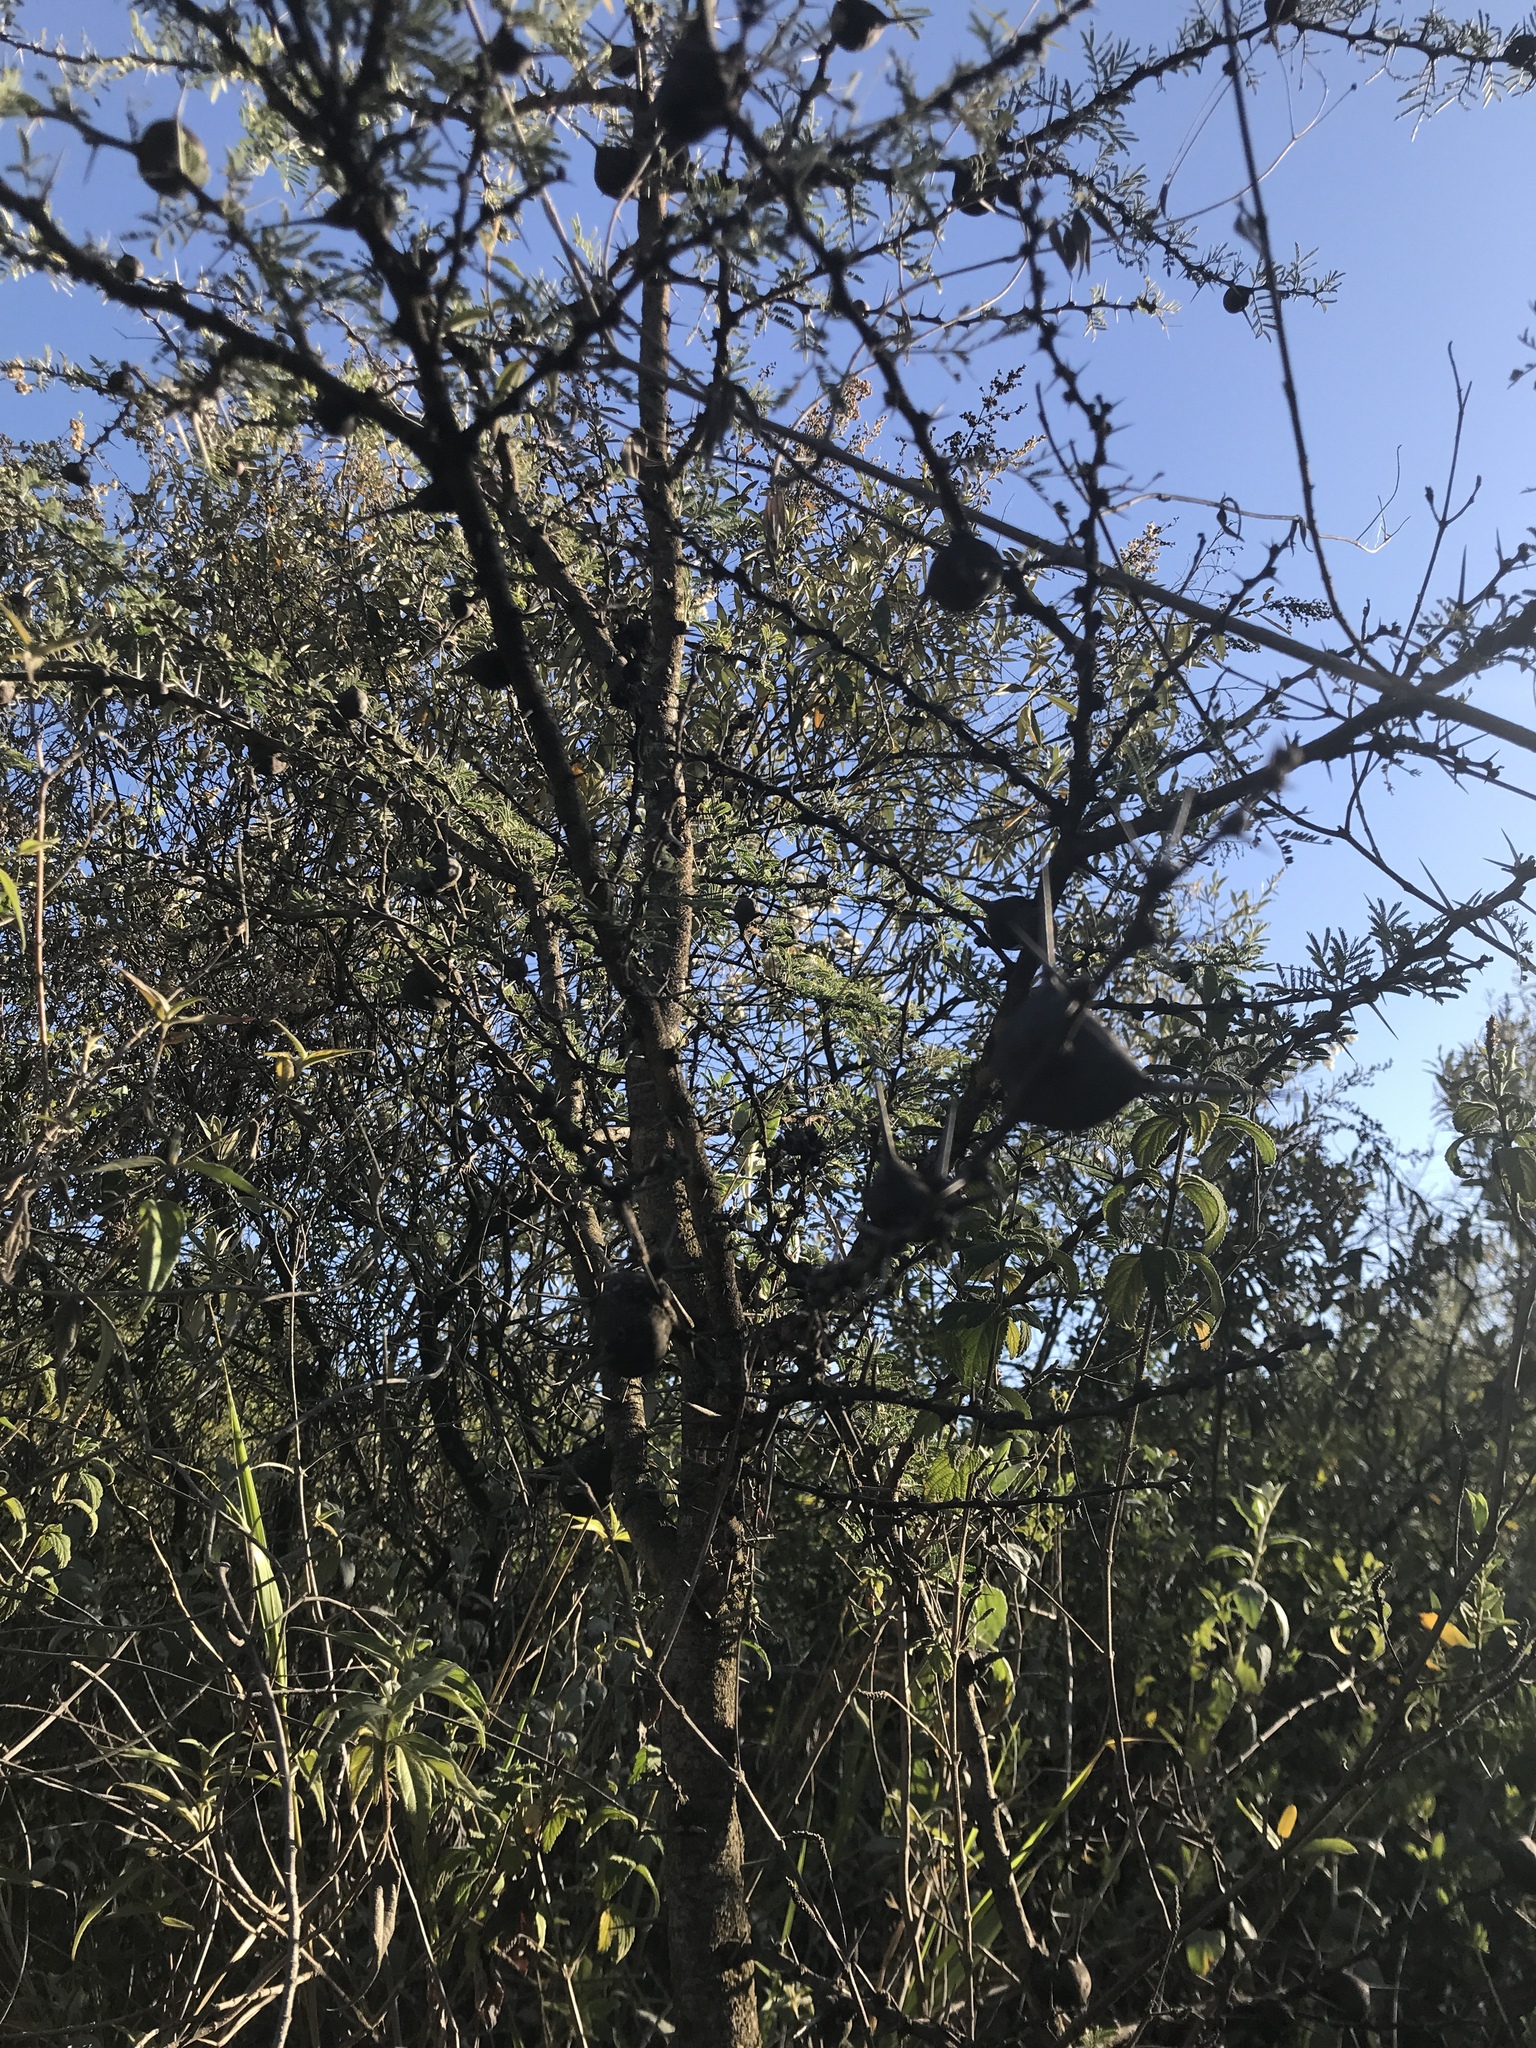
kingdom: Plantae
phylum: Tracheophyta
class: Magnoliopsida
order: Fabales
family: Fabaceae
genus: Vachellia
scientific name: Vachellia drepanolobium
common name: Whistling thorn
